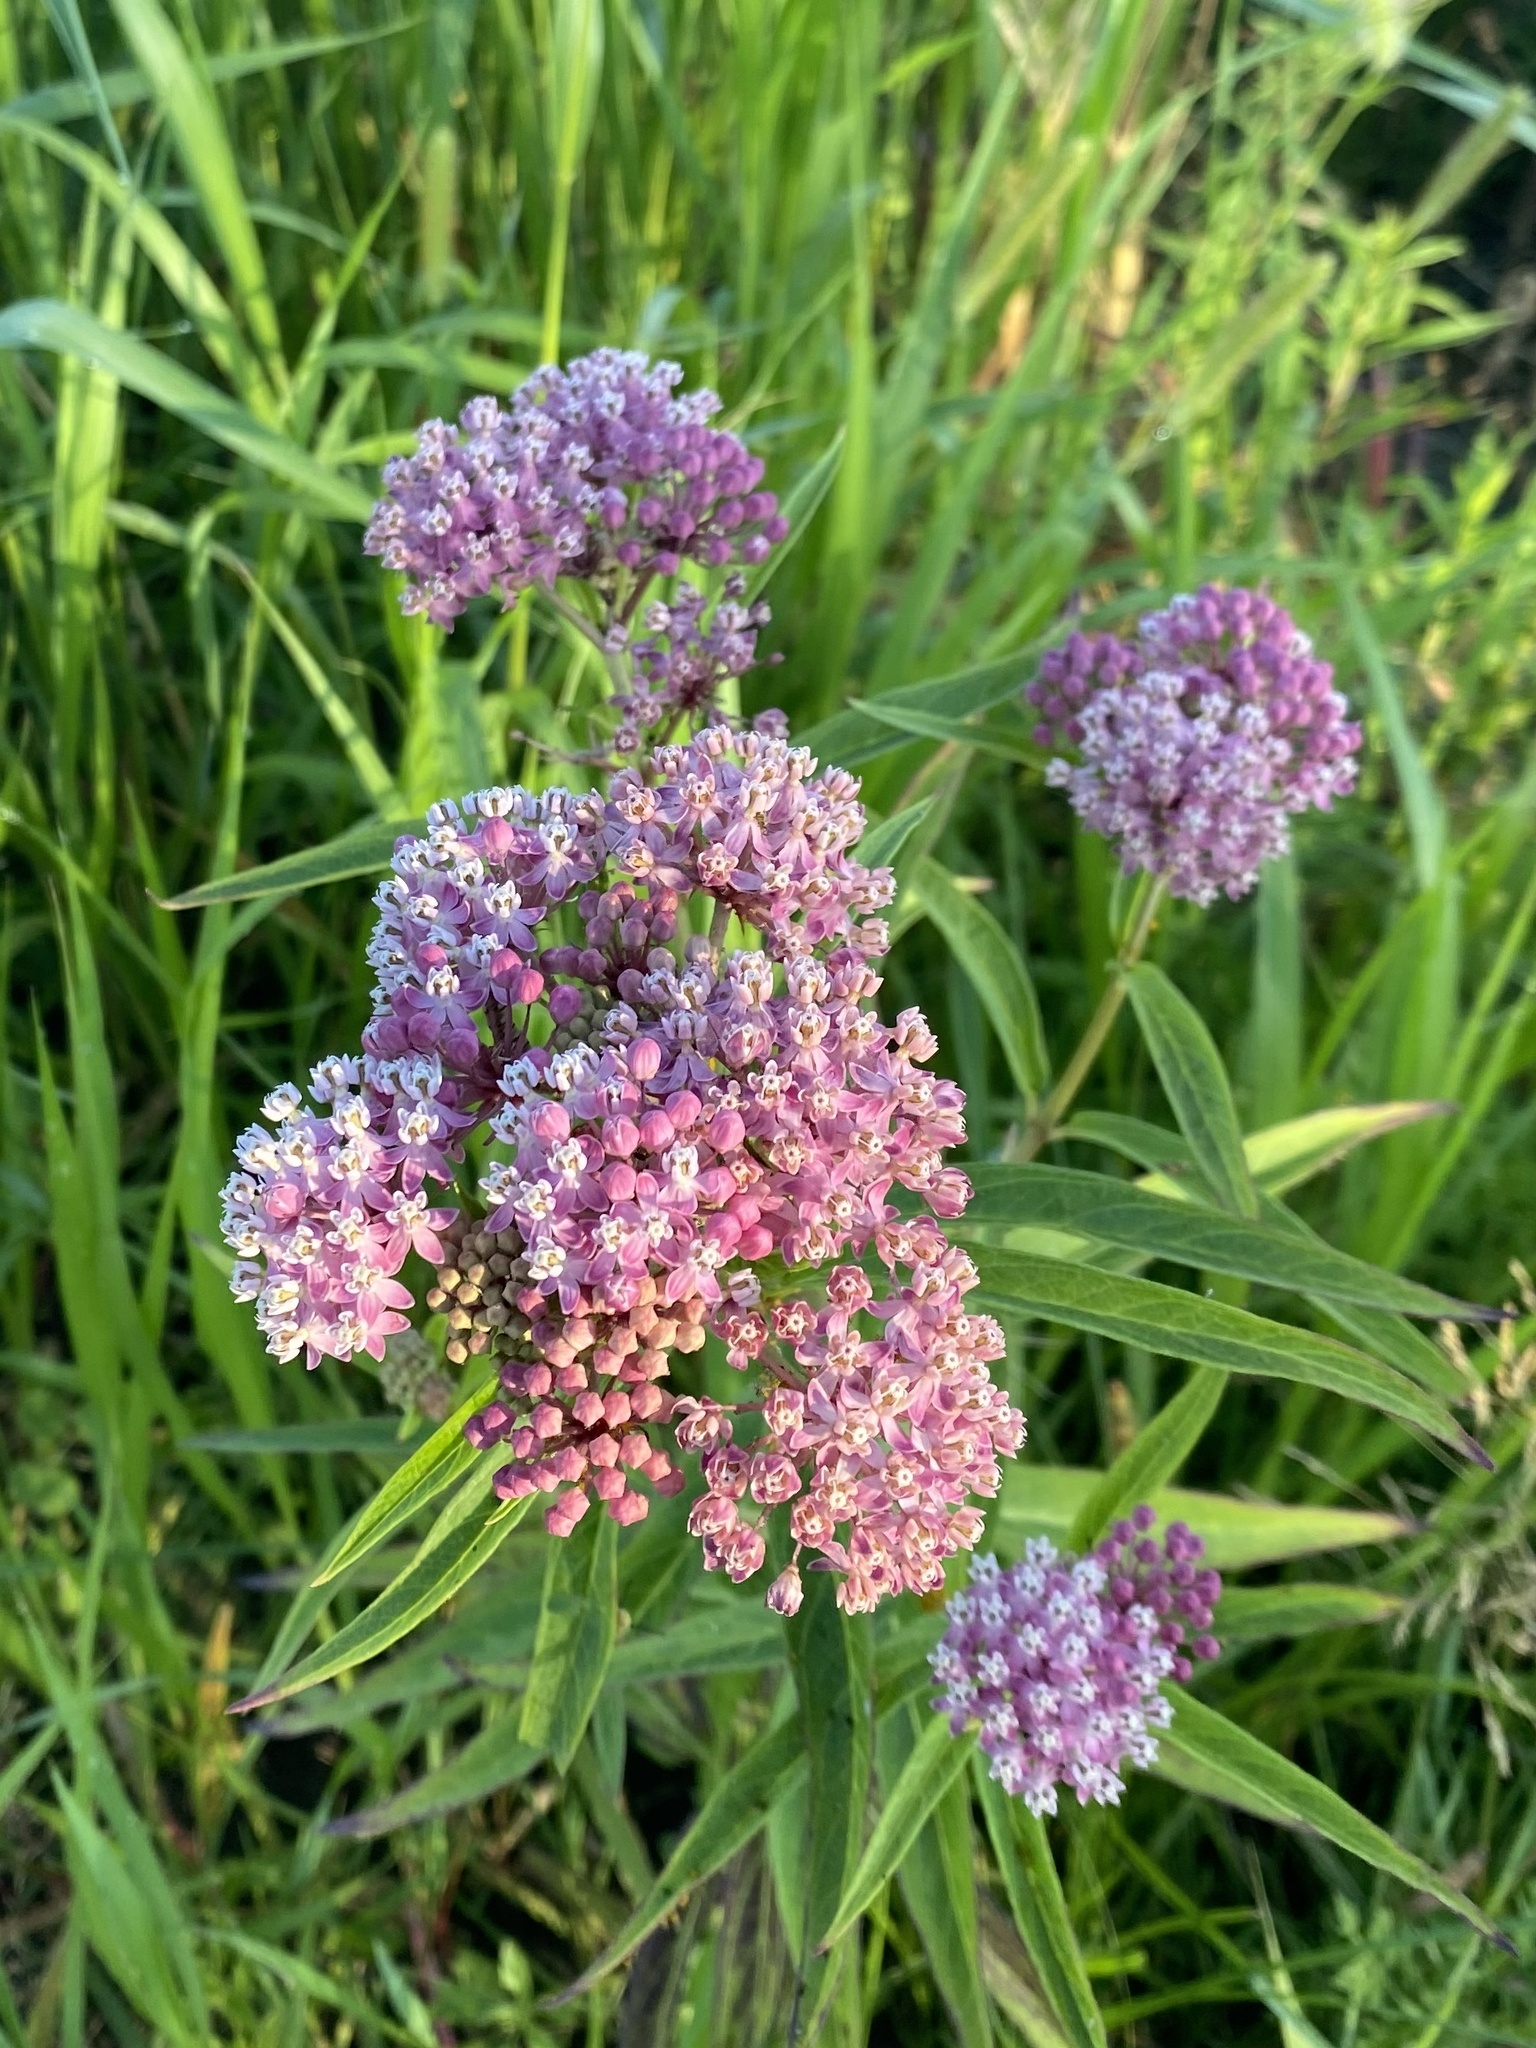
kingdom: Plantae
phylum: Tracheophyta
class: Magnoliopsida
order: Gentianales
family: Apocynaceae
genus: Asclepias
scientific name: Asclepias incarnata
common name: Swamp milkweed
